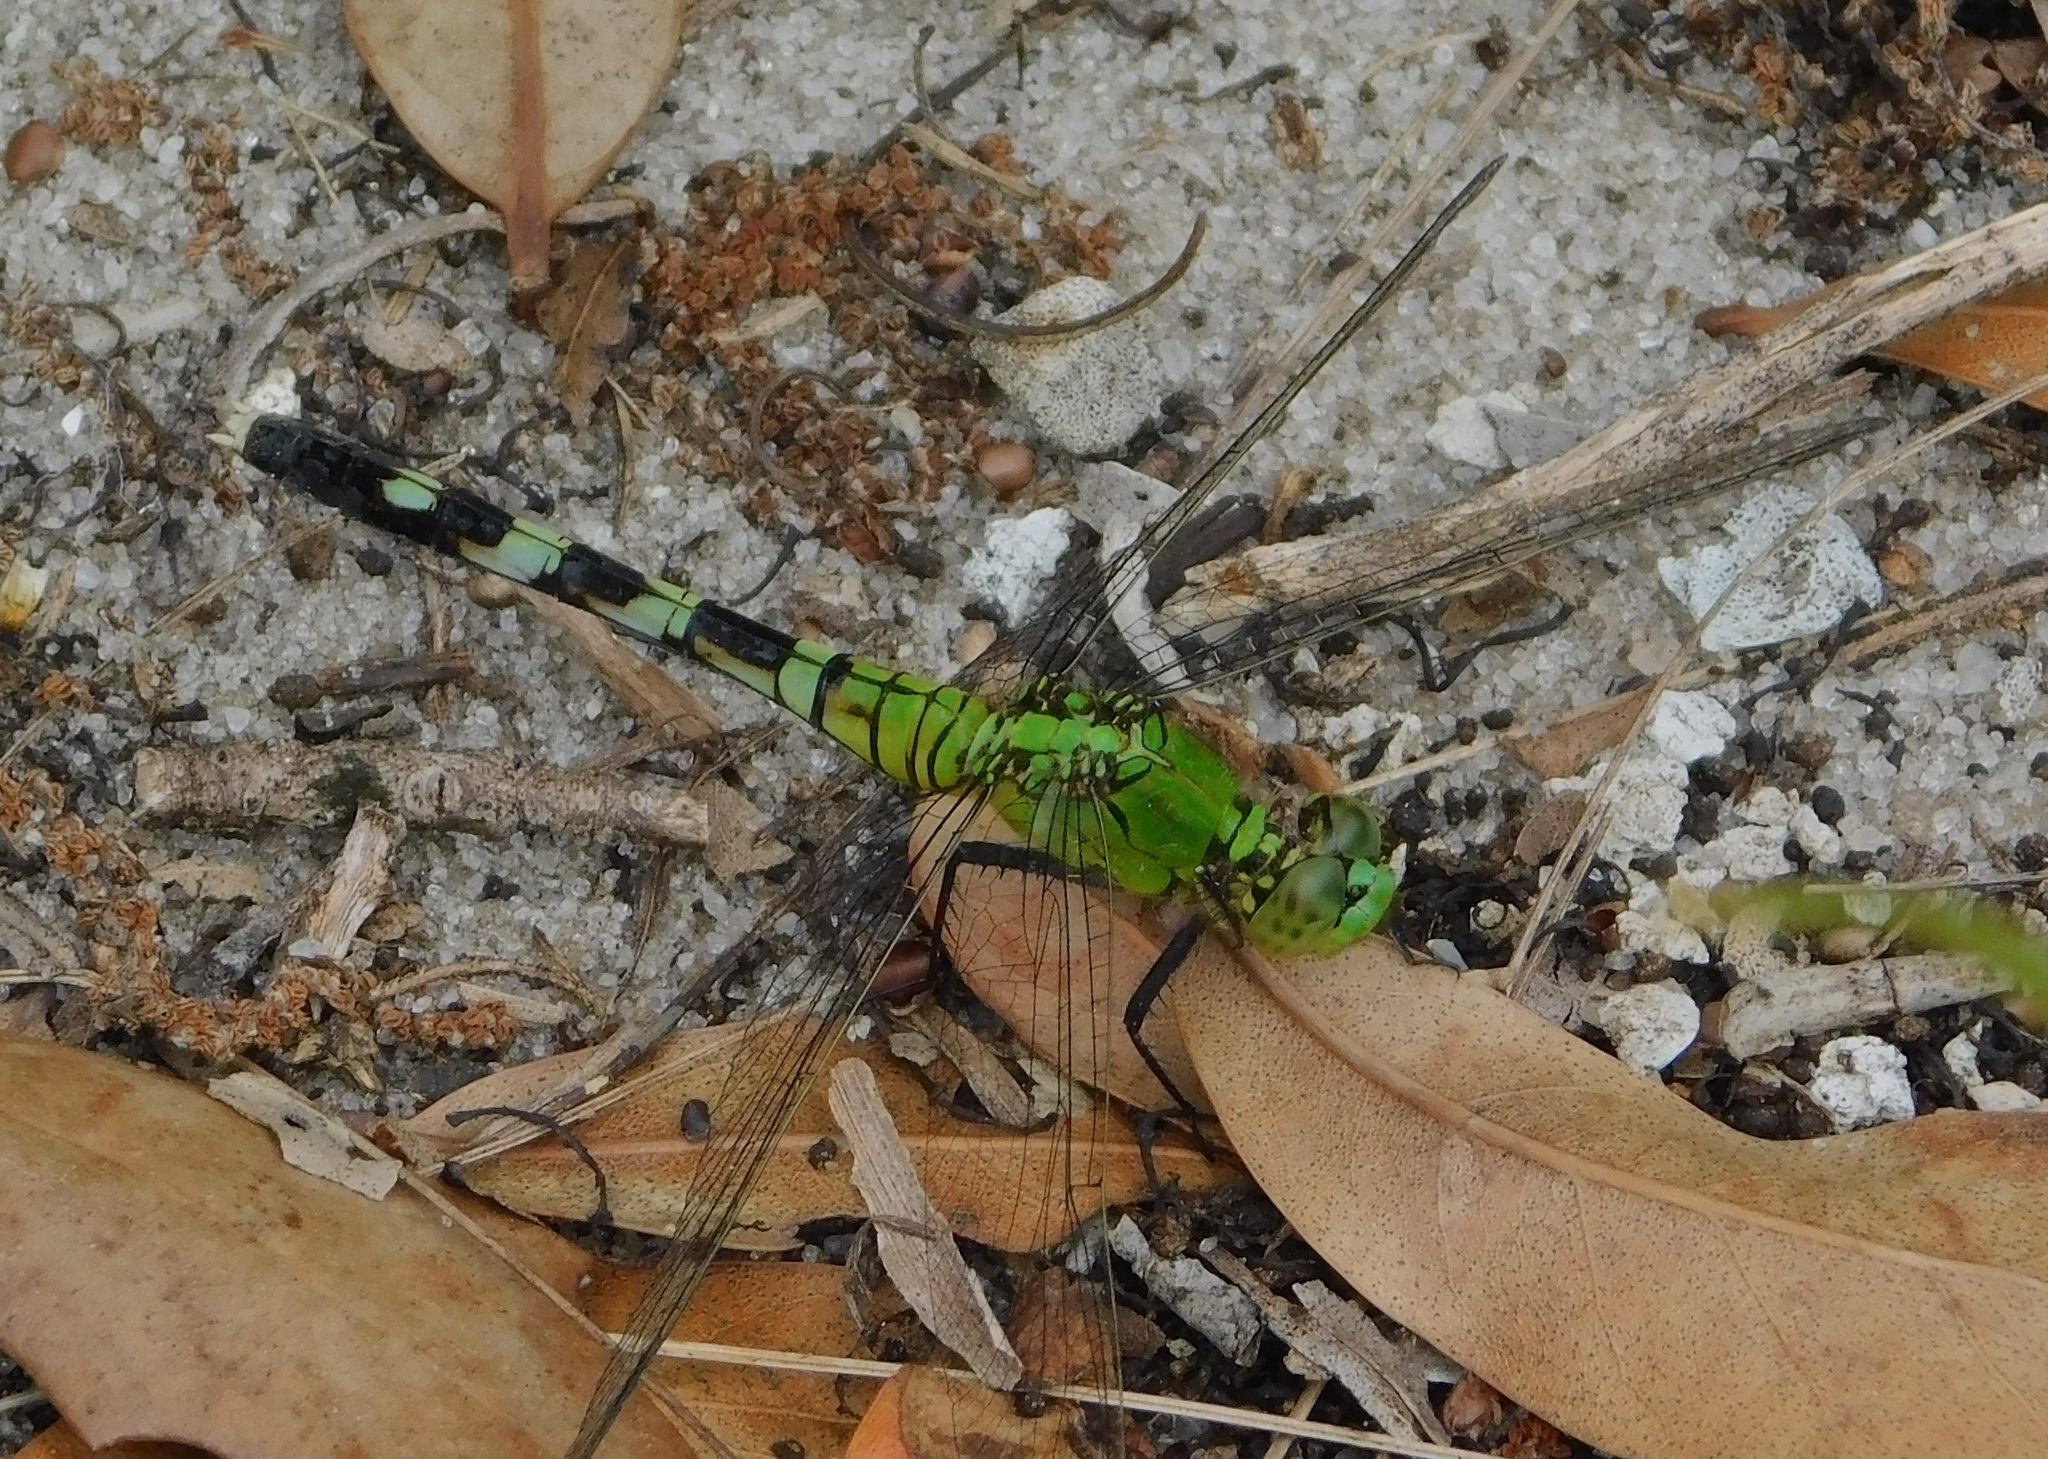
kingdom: Animalia
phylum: Arthropoda
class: Insecta
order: Odonata
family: Libellulidae
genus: Erythemis
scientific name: Erythemis simplicicollis
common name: Eastern pondhawk
